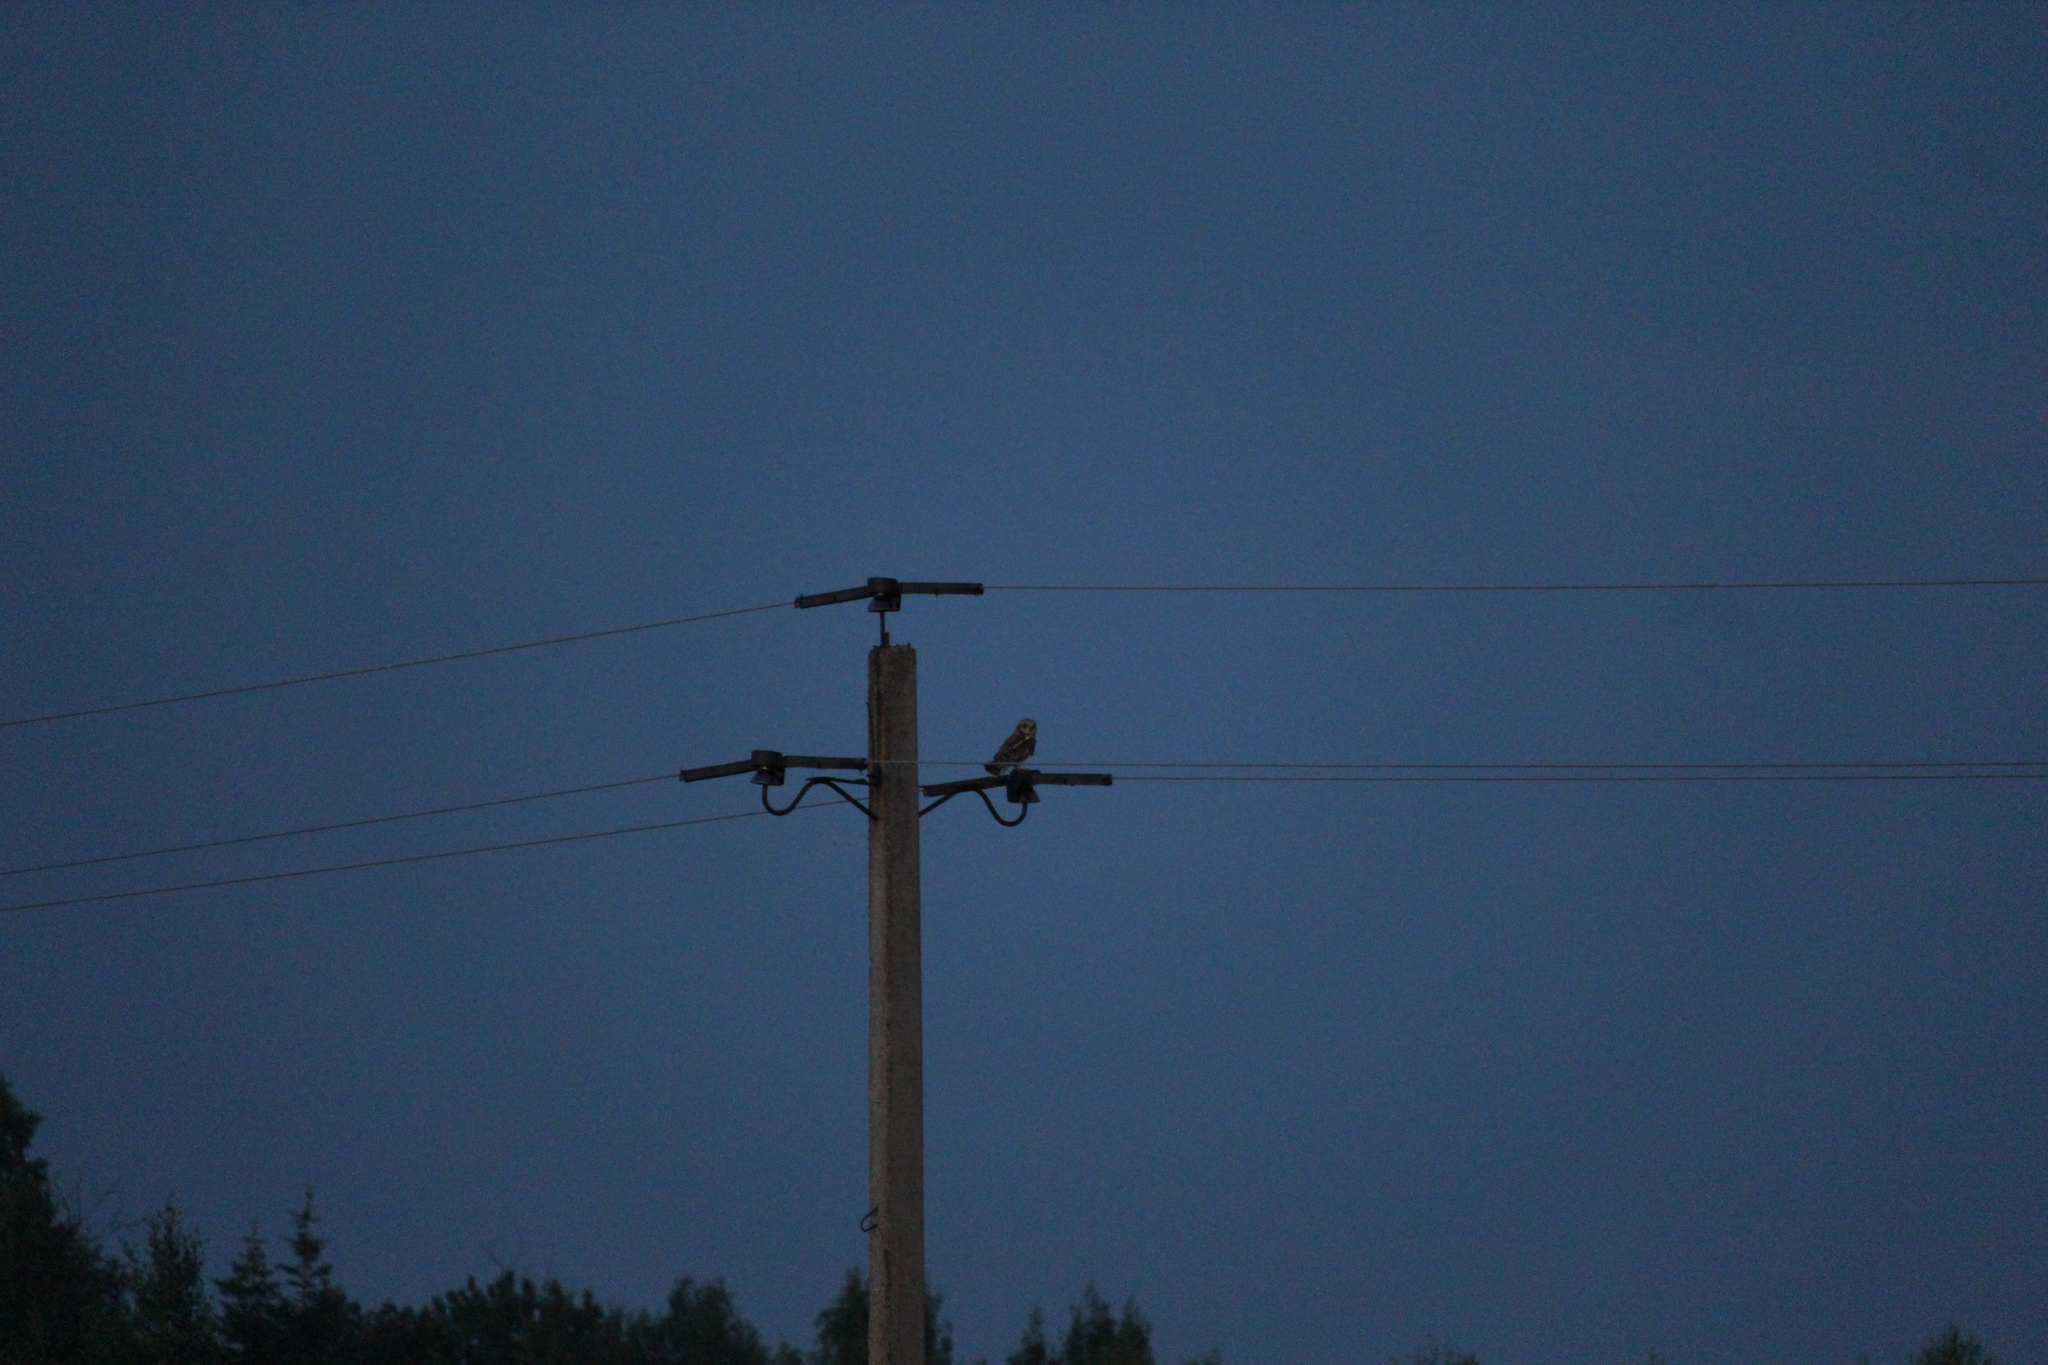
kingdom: Animalia
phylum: Chordata
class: Aves
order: Strigiformes
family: Strigidae
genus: Asio
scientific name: Asio flammeus
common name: Short-eared owl
